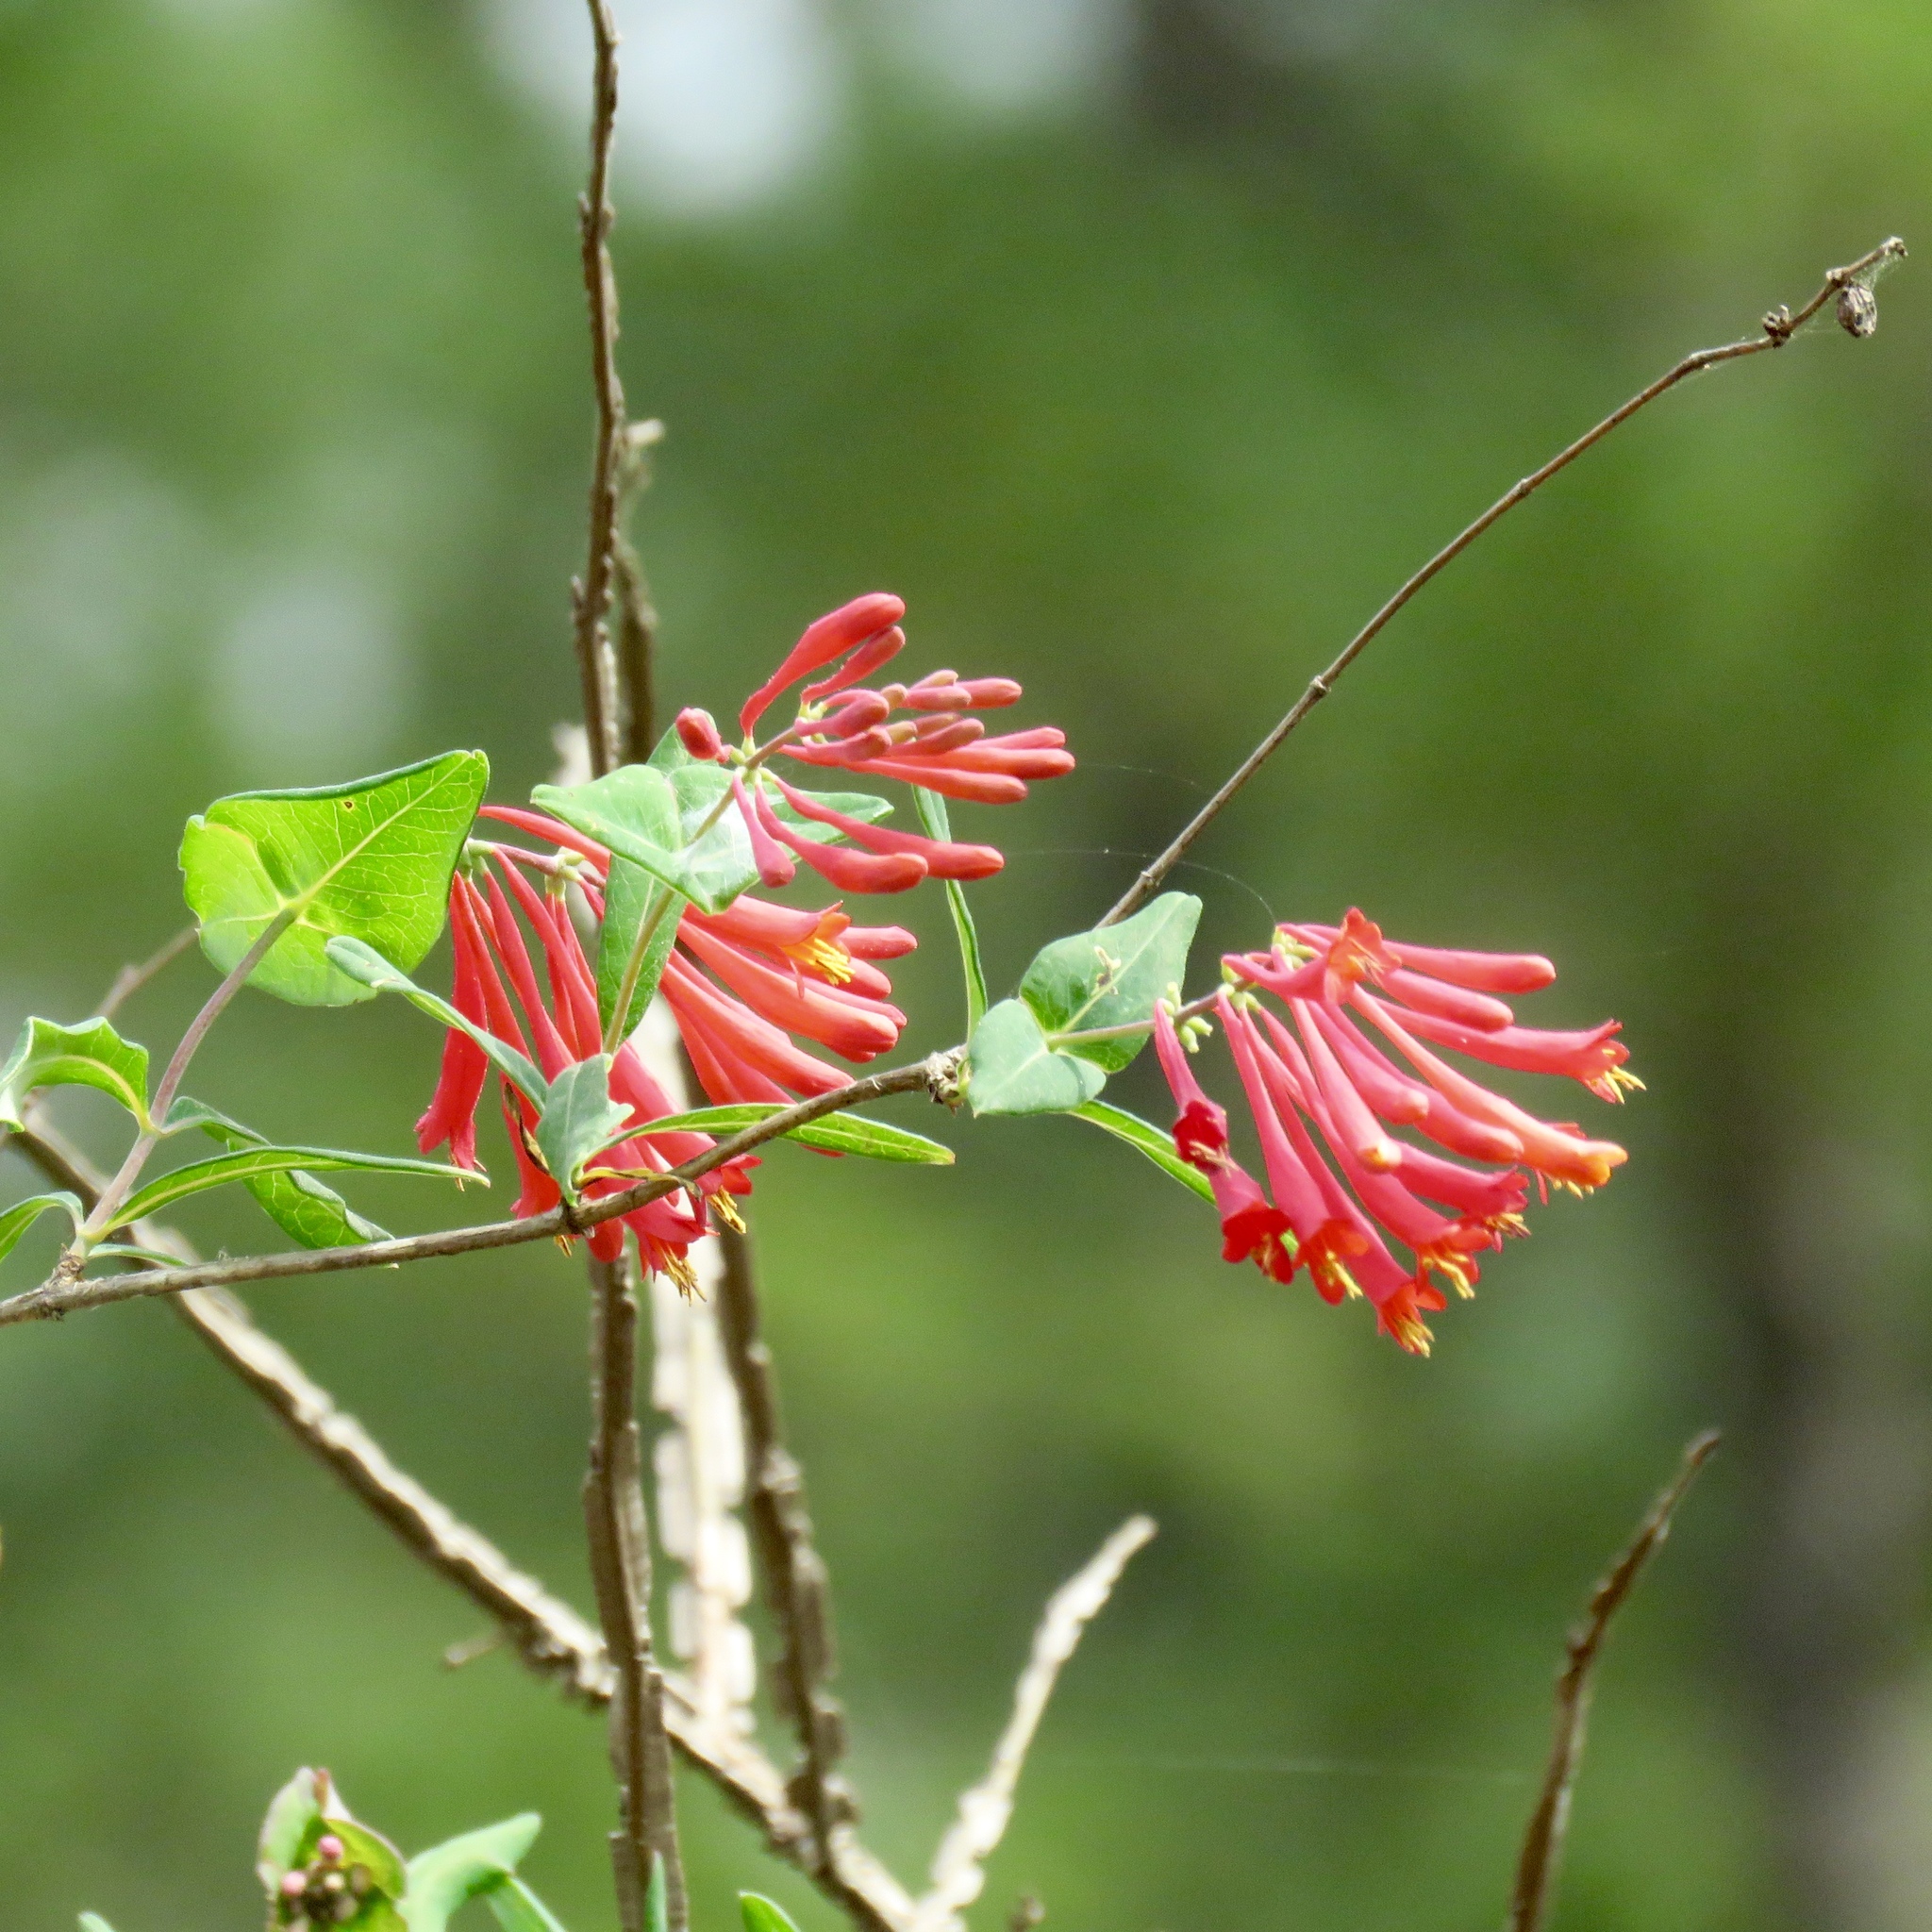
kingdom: Plantae
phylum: Tracheophyta
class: Magnoliopsida
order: Dipsacales
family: Caprifoliaceae
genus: Lonicera
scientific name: Lonicera sempervirens
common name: Coral honeysuckle
